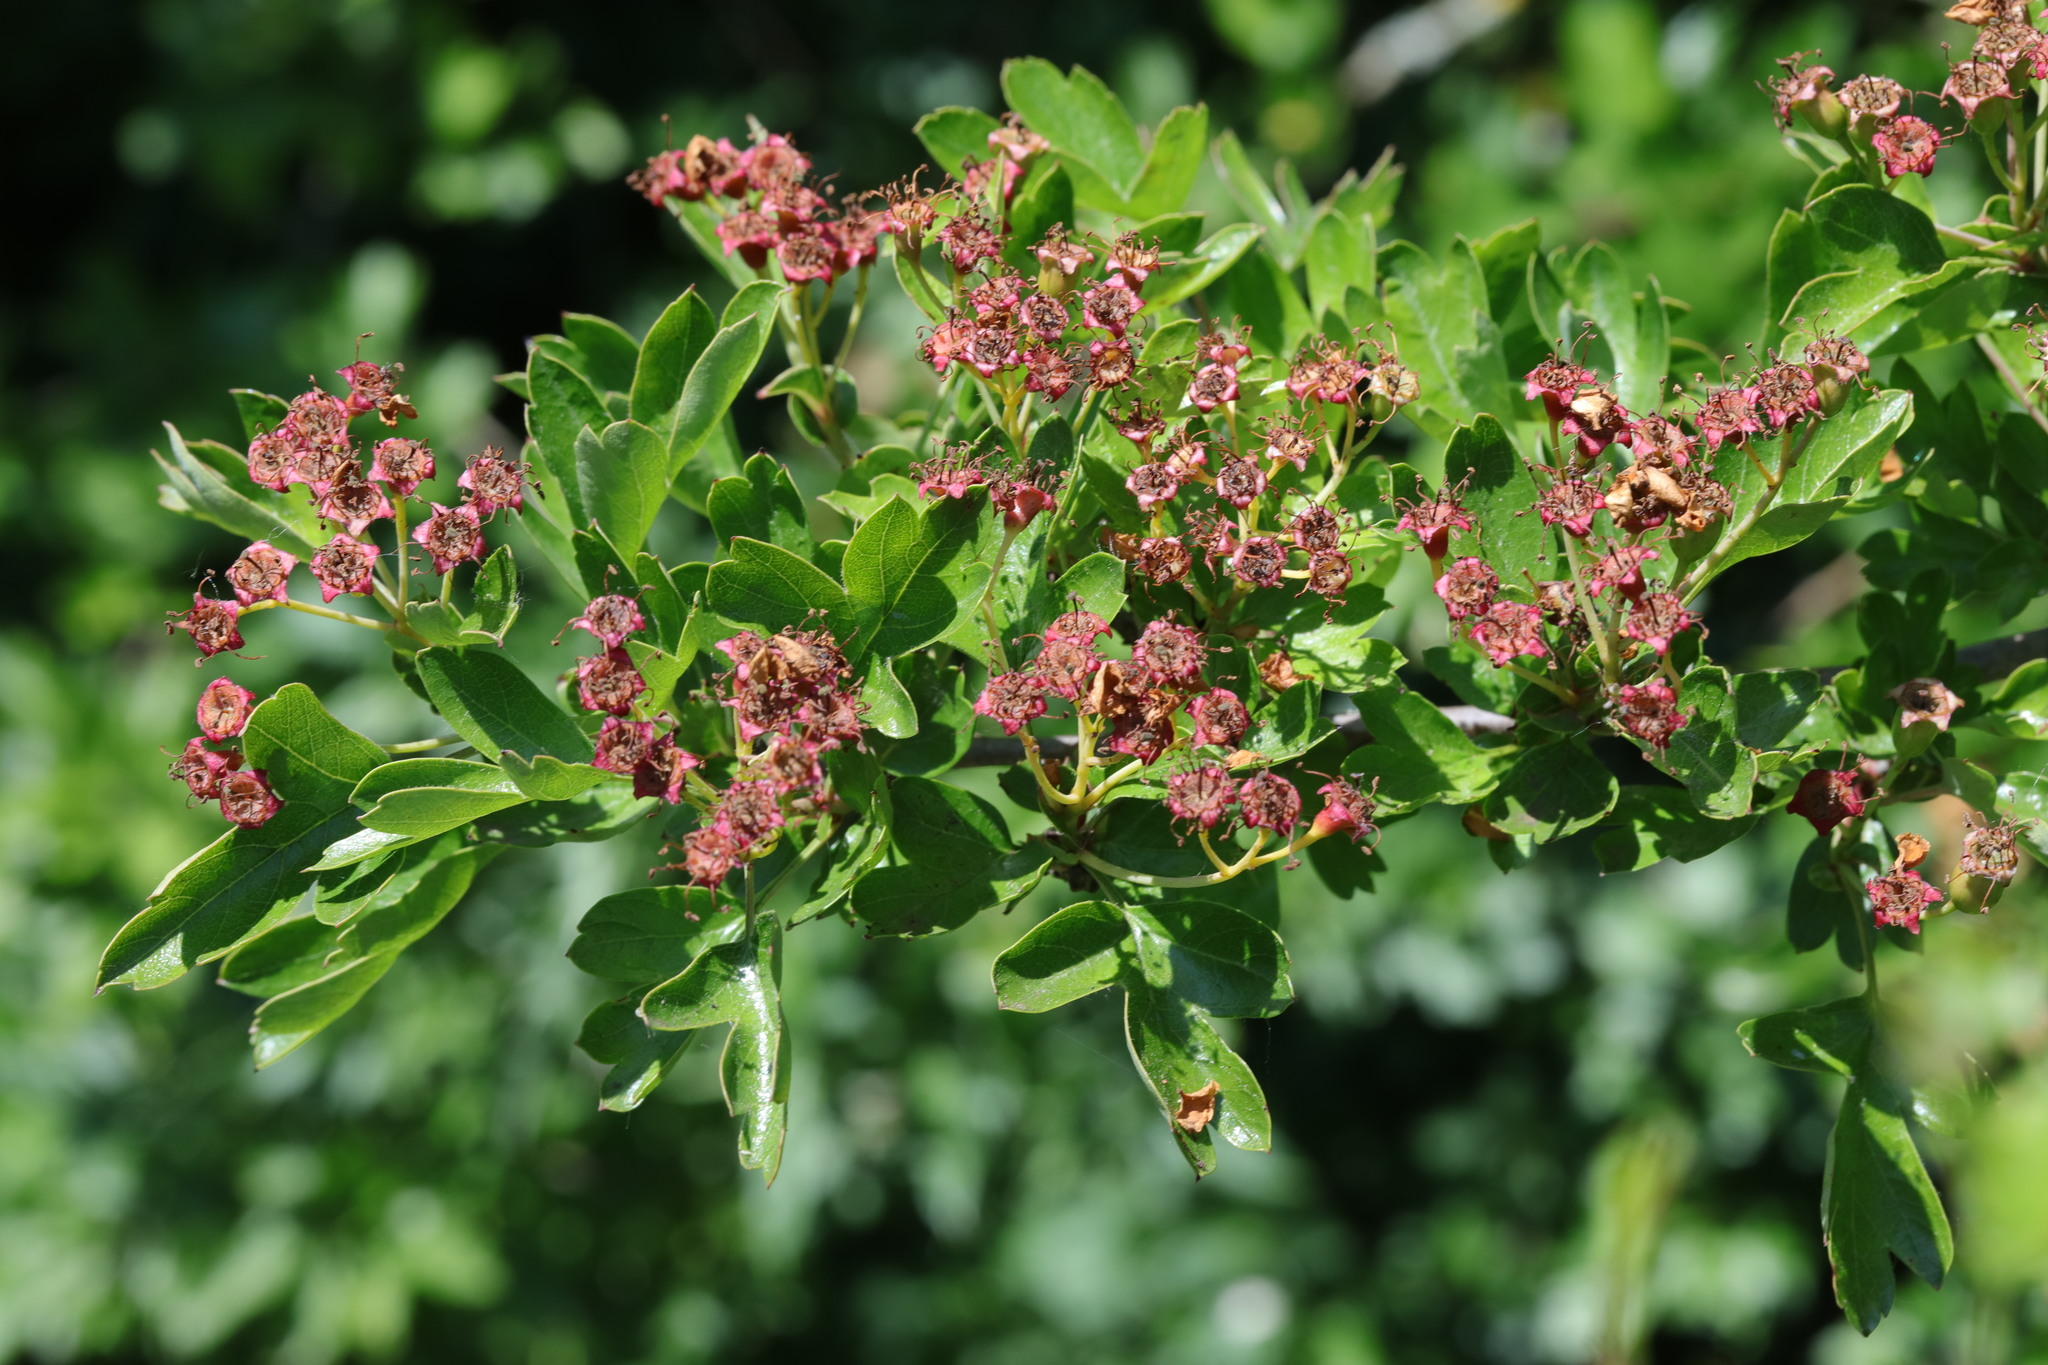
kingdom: Plantae
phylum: Tracheophyta
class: Magnoliopsida
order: Rosales
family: Rosaceae
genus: Crataegus
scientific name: Crataegus monogyna
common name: Hawthorn
